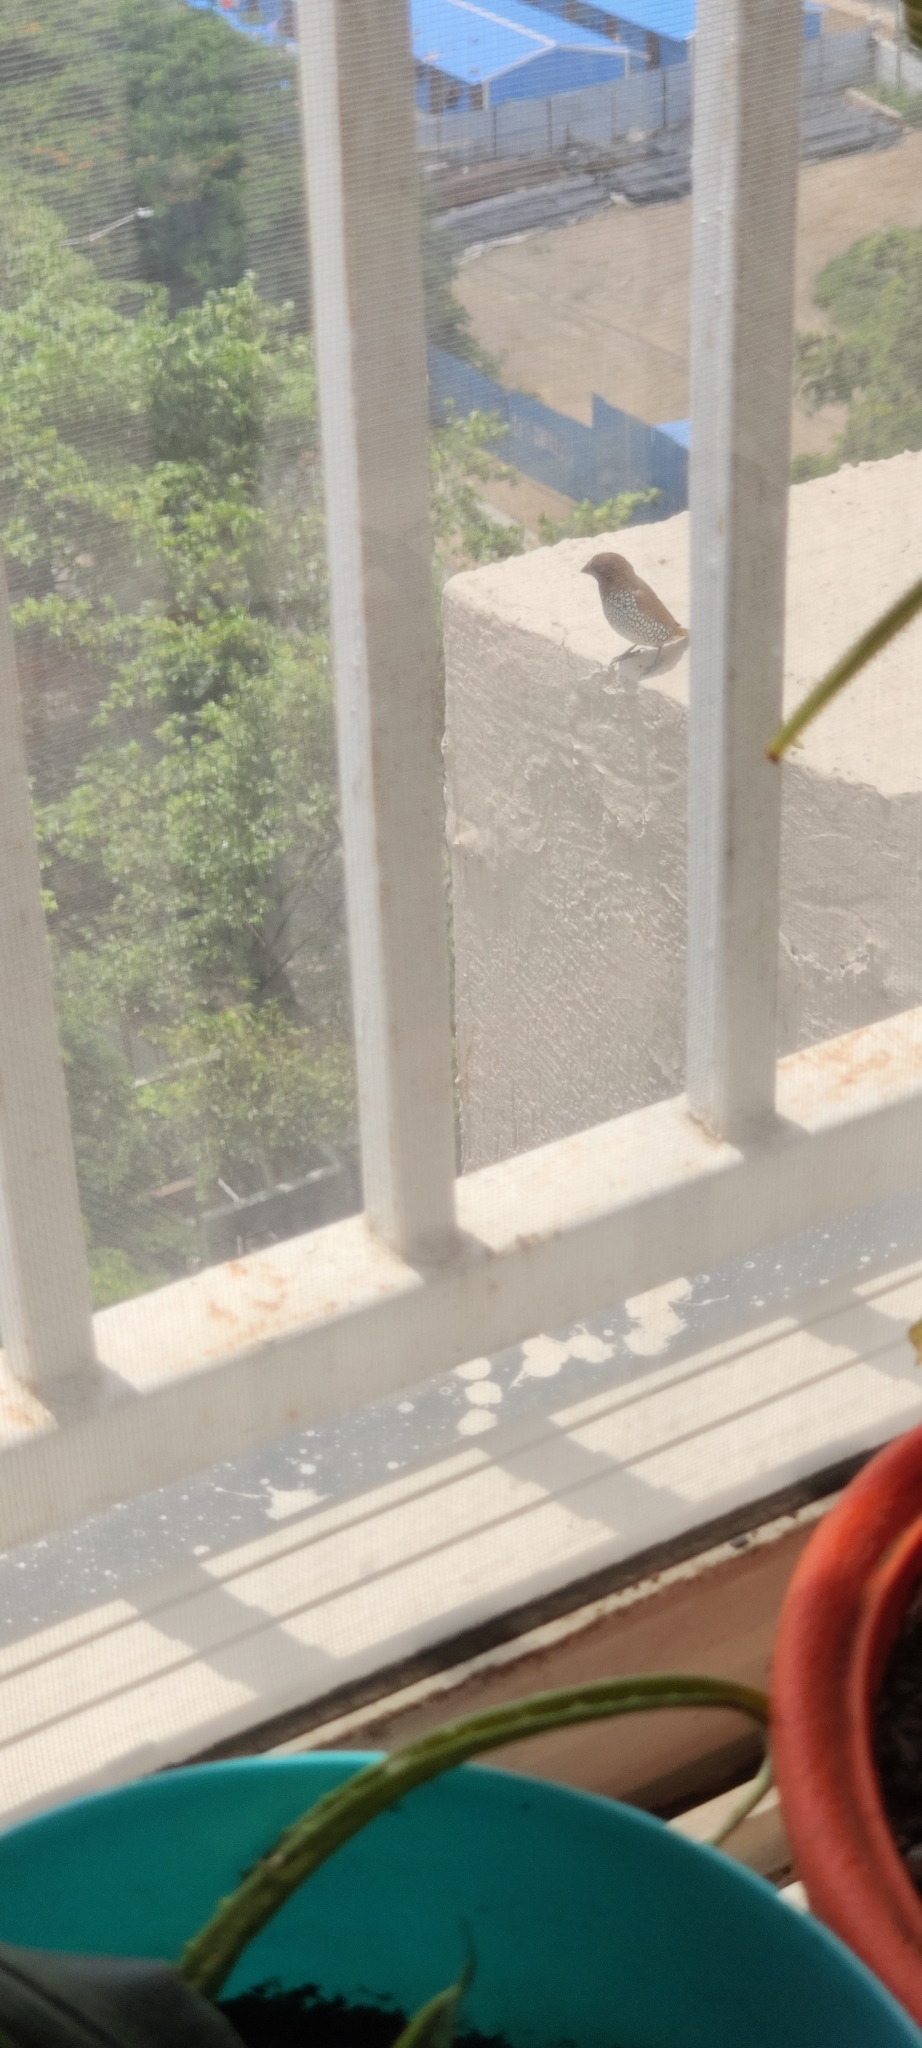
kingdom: Animalia
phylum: Chordata
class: Aves
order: Passeriformes
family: Estrildidae
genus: Lonchura
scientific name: Lonchura punctulata
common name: Scaly-breasted munia
